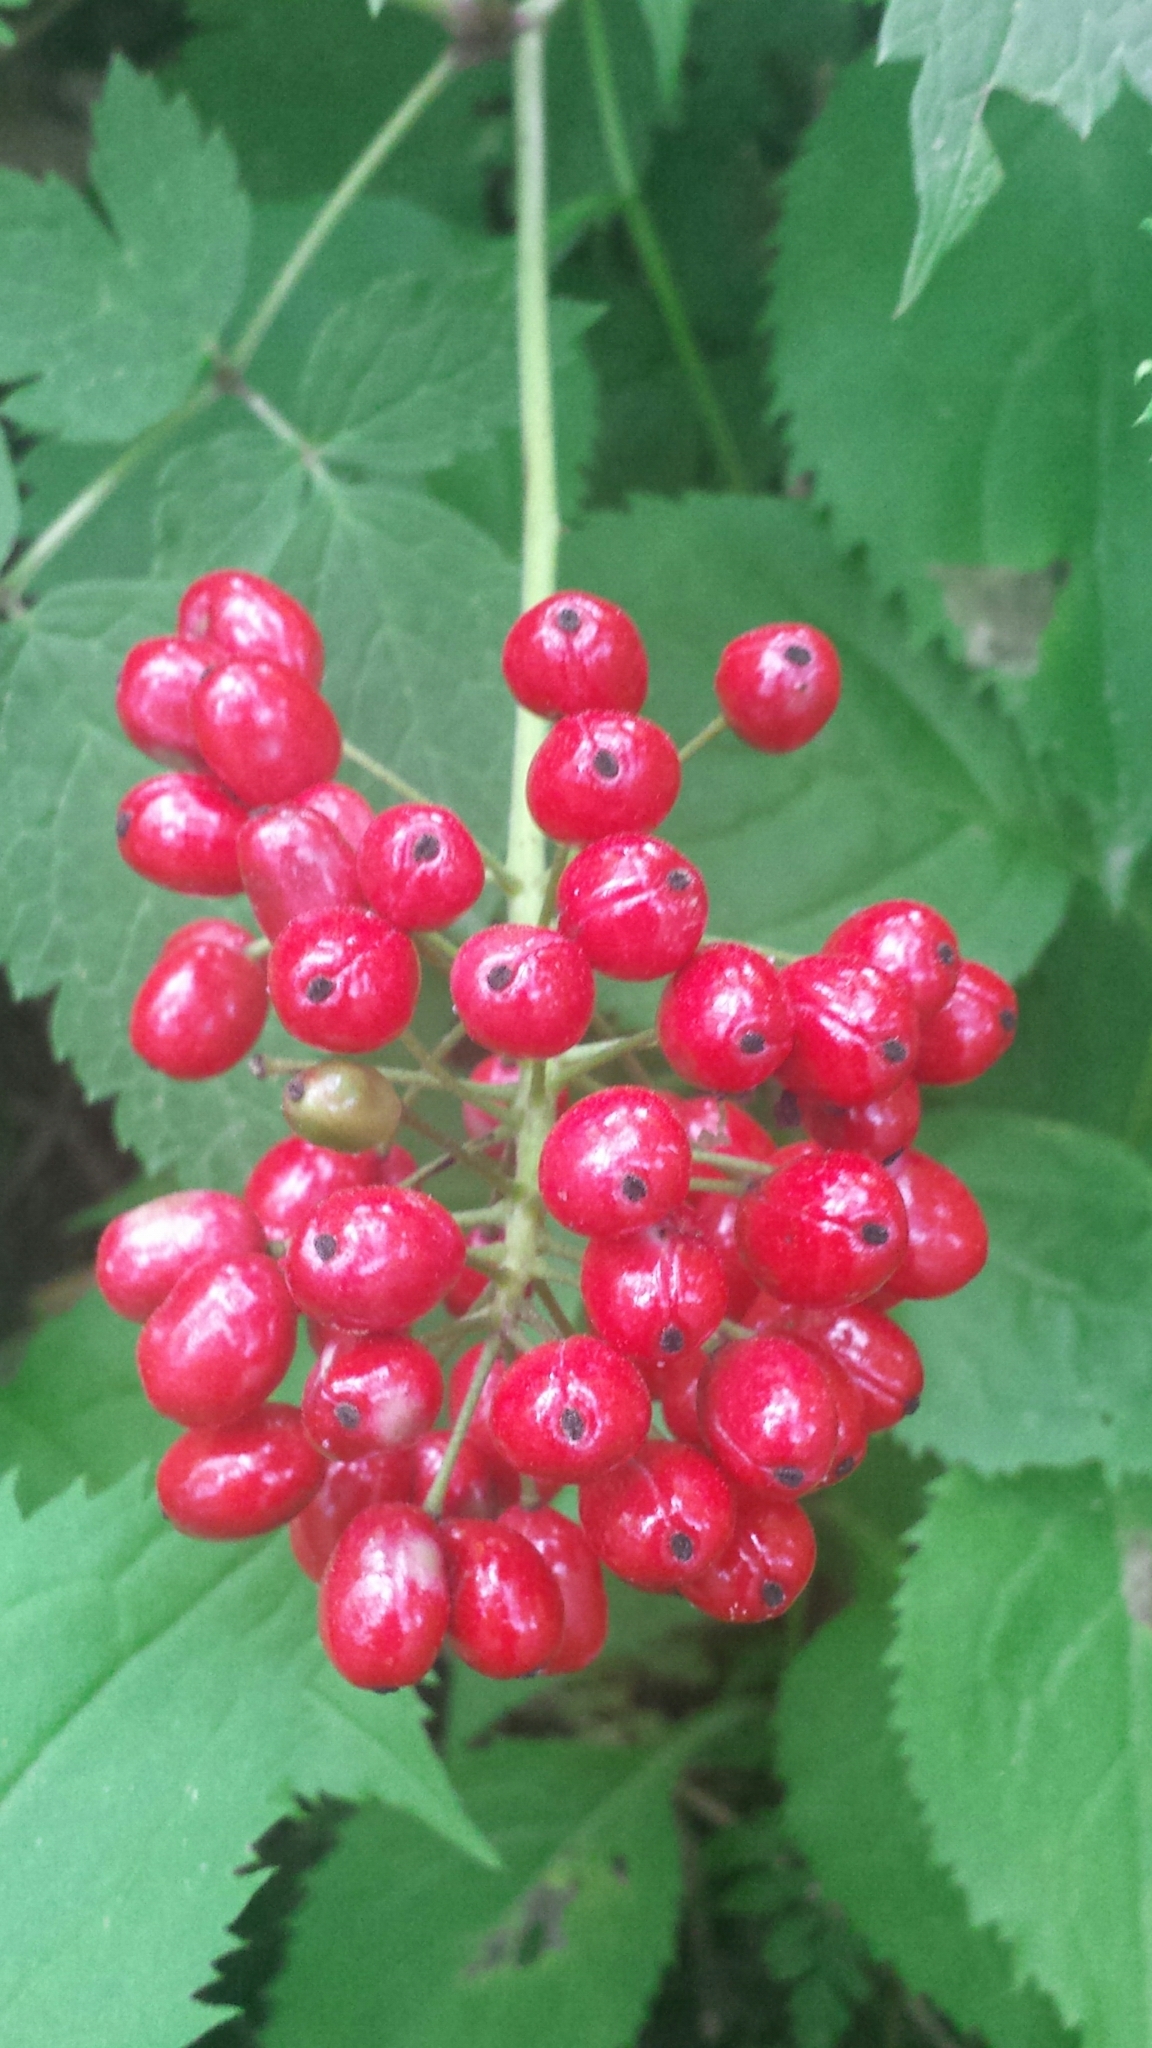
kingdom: Plantae
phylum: Tracheophyta
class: Magnoliopsida
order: Ranunculales
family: Ranunculaceae
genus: Actaea
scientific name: Actaea rubra
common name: Red baneberry
